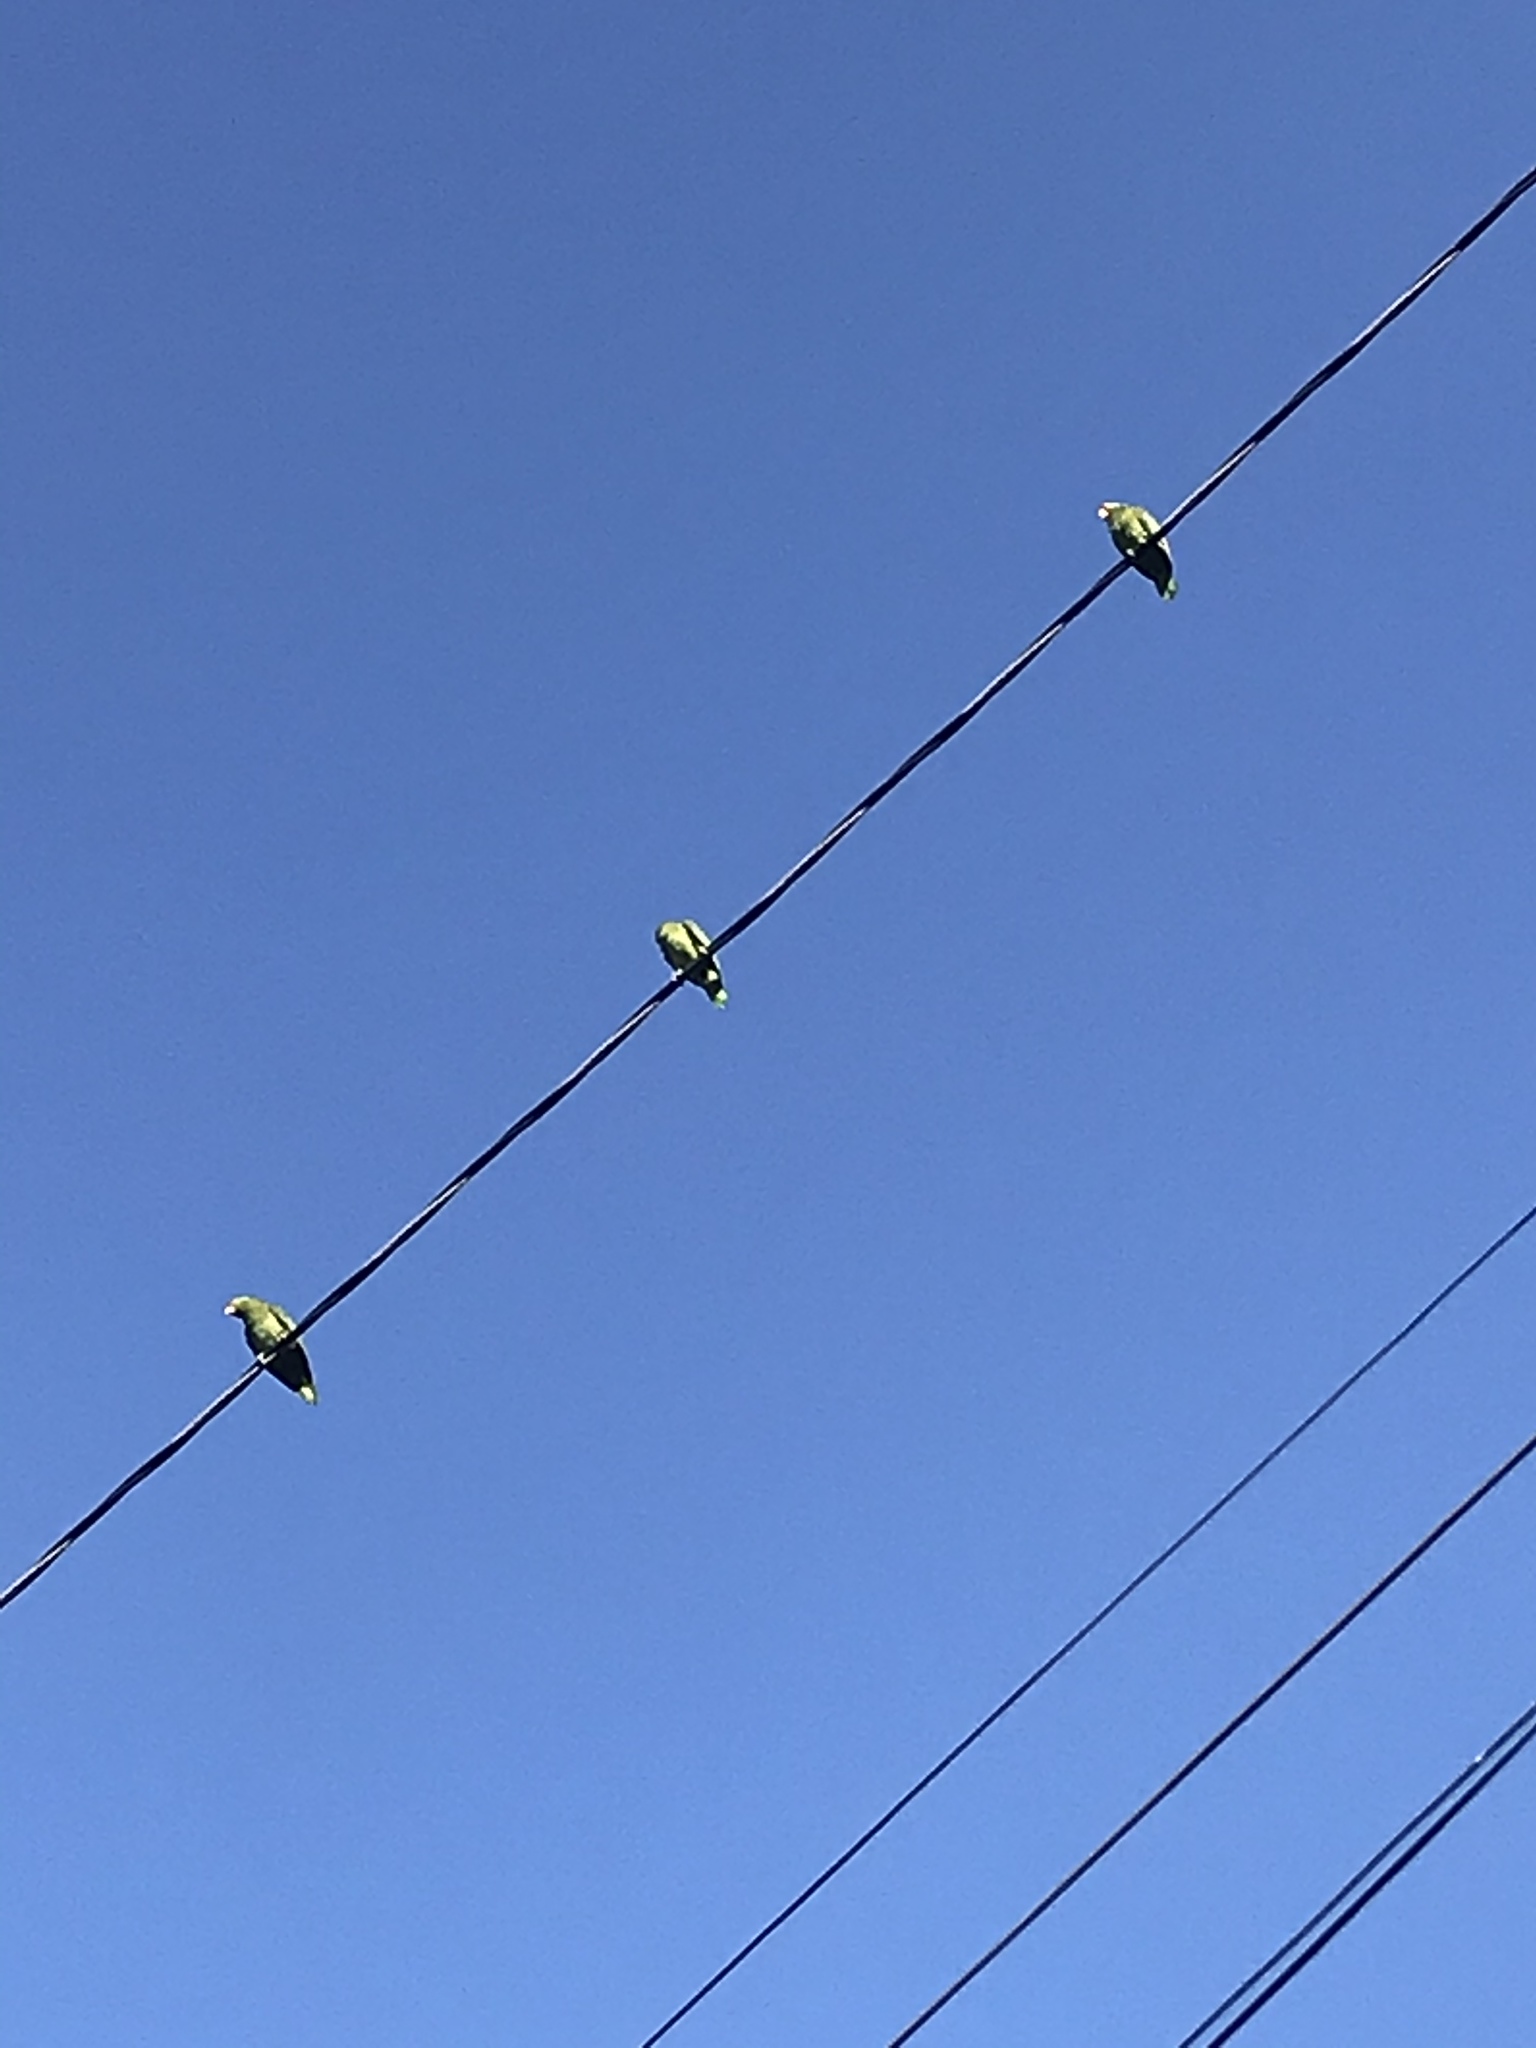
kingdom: Animalia
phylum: Chordata
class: Aves
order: Psittaciformes
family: Psittacidae
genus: Amazona
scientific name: Amazona
